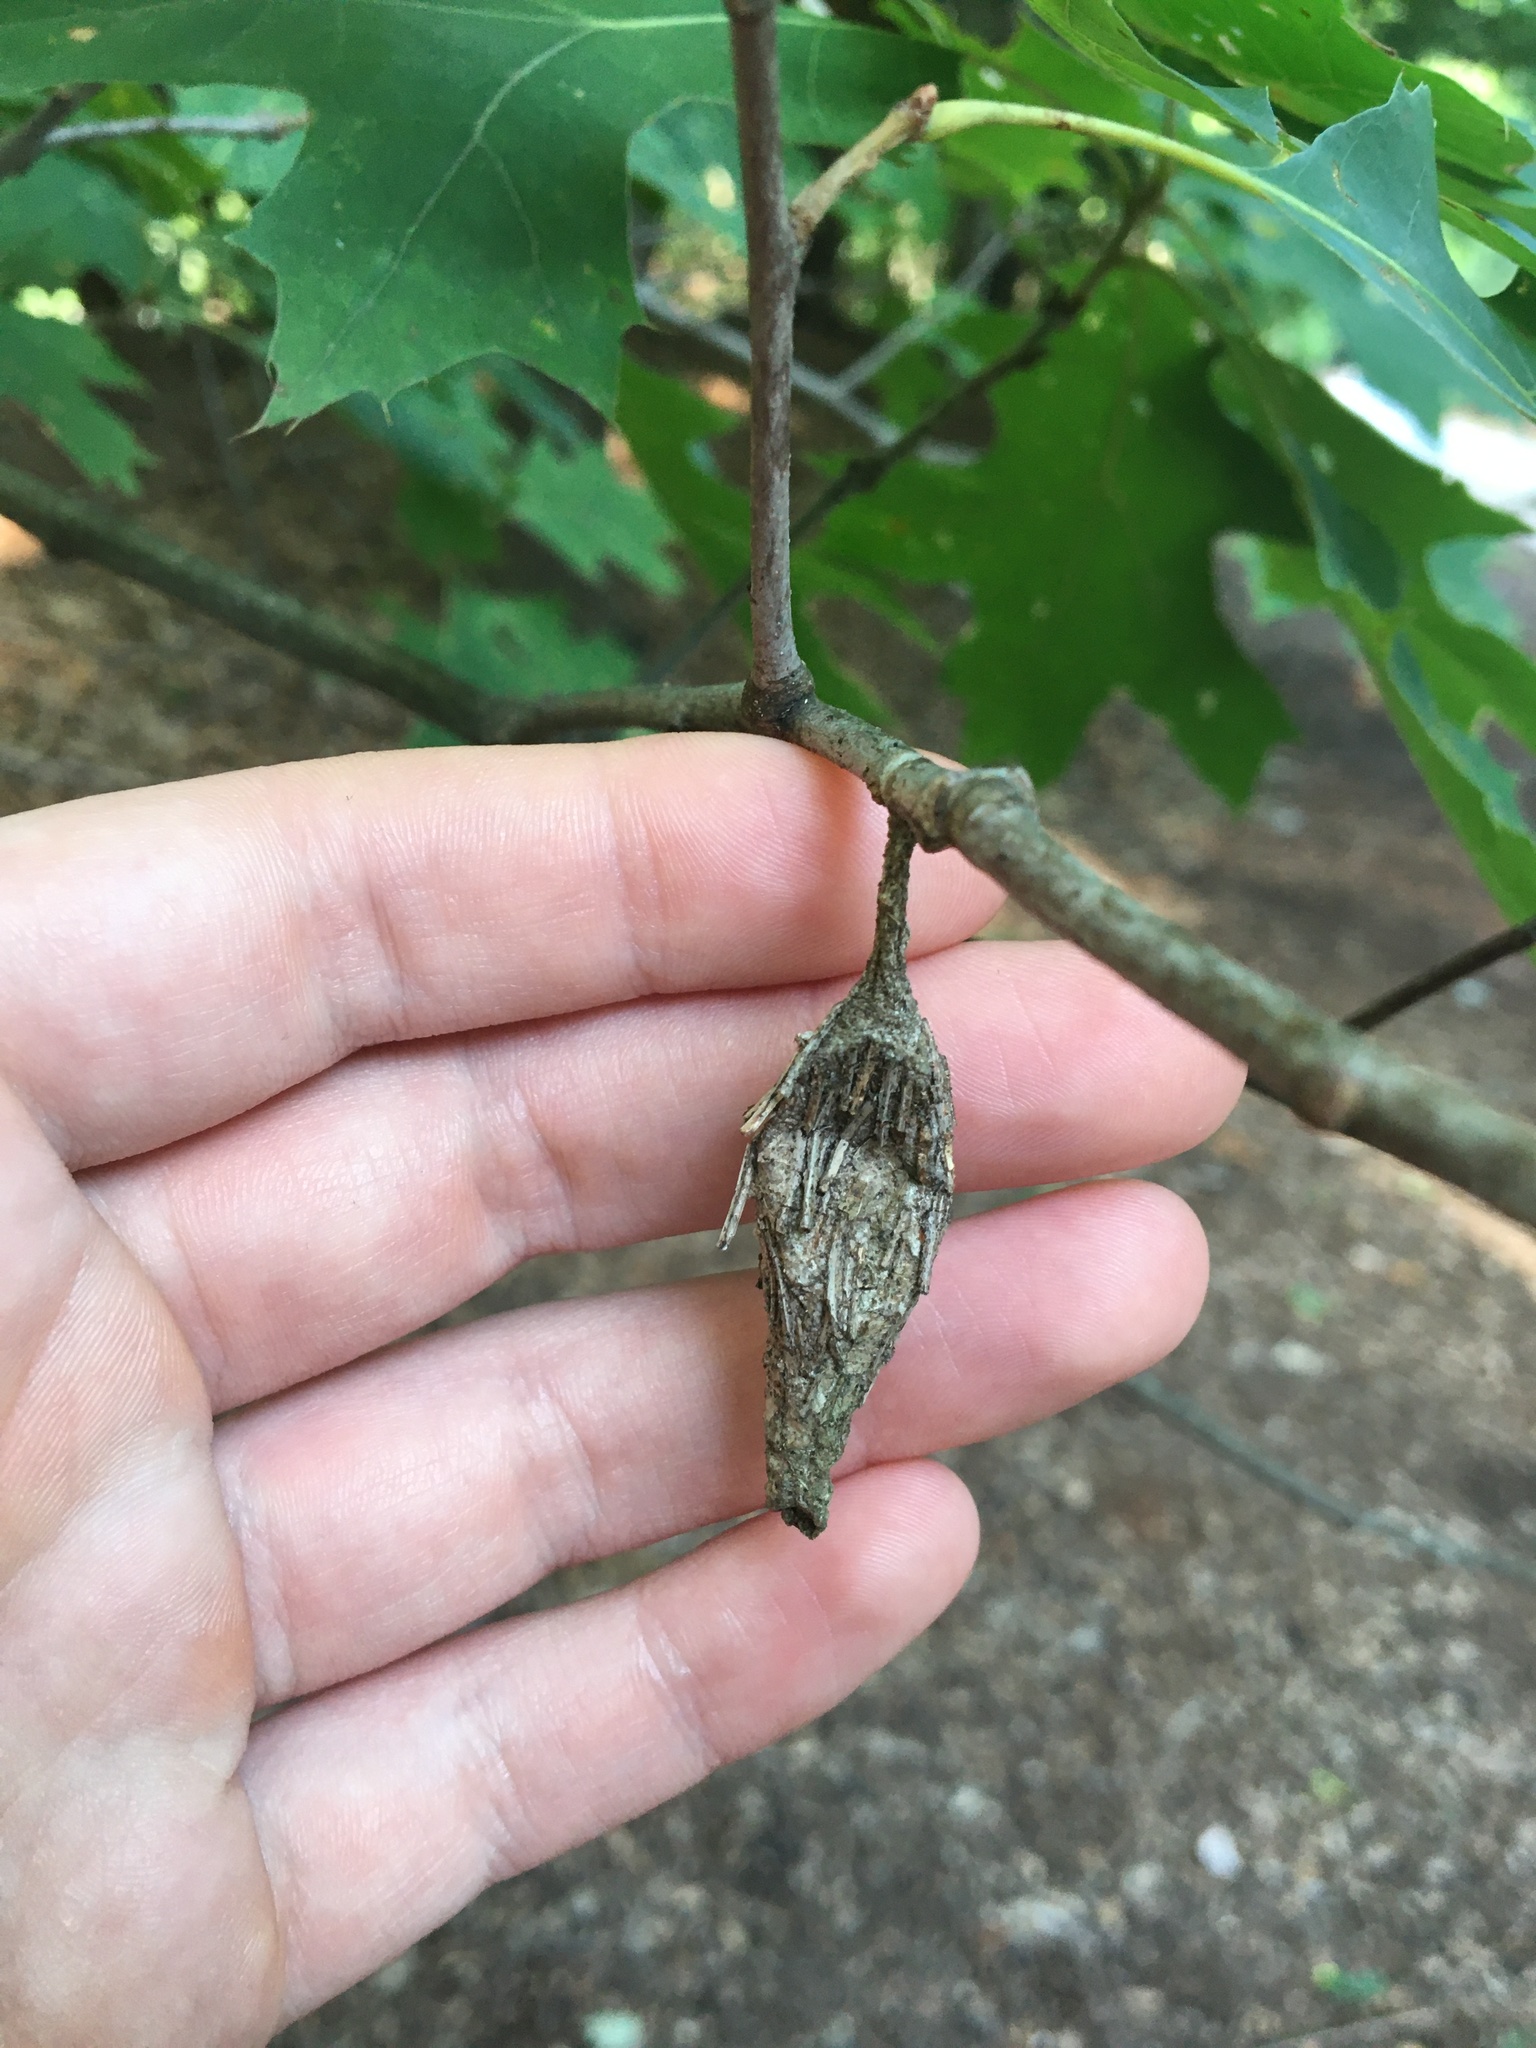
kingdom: Animalia
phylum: Arthropoda
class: Insecta
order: Lepidoptera
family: Psychidae
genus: Thyridopteryx
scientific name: Thyridopteryx ephemeraeformis
